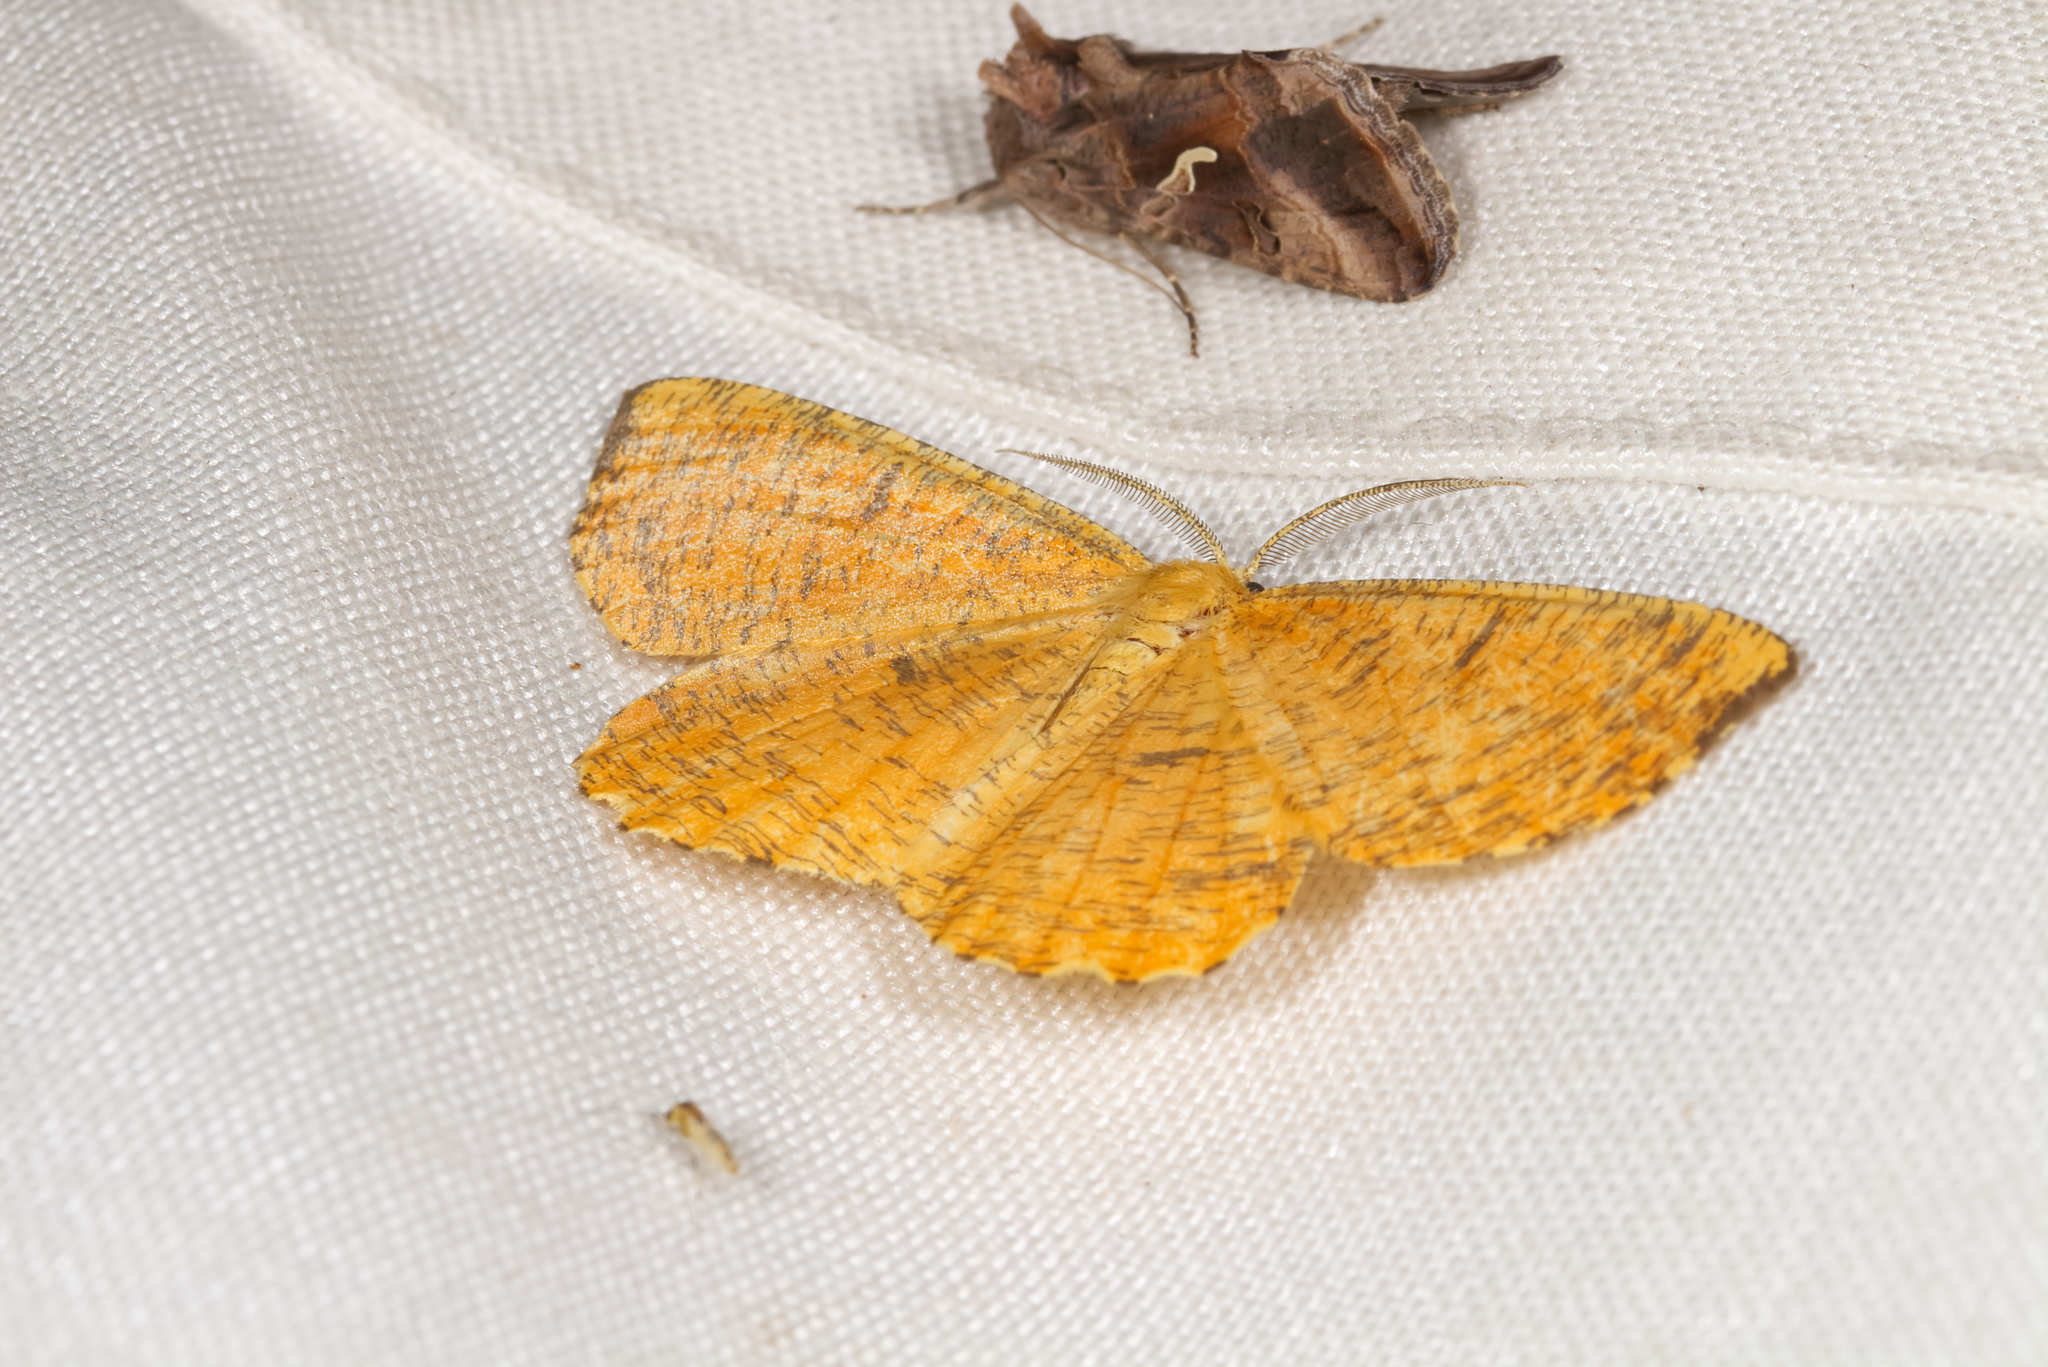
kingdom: Animalia
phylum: Arthropoda
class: Insecta
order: Lepidoptera
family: Geometridae
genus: Angerona
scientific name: Angerona prunaria
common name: Orange moth
